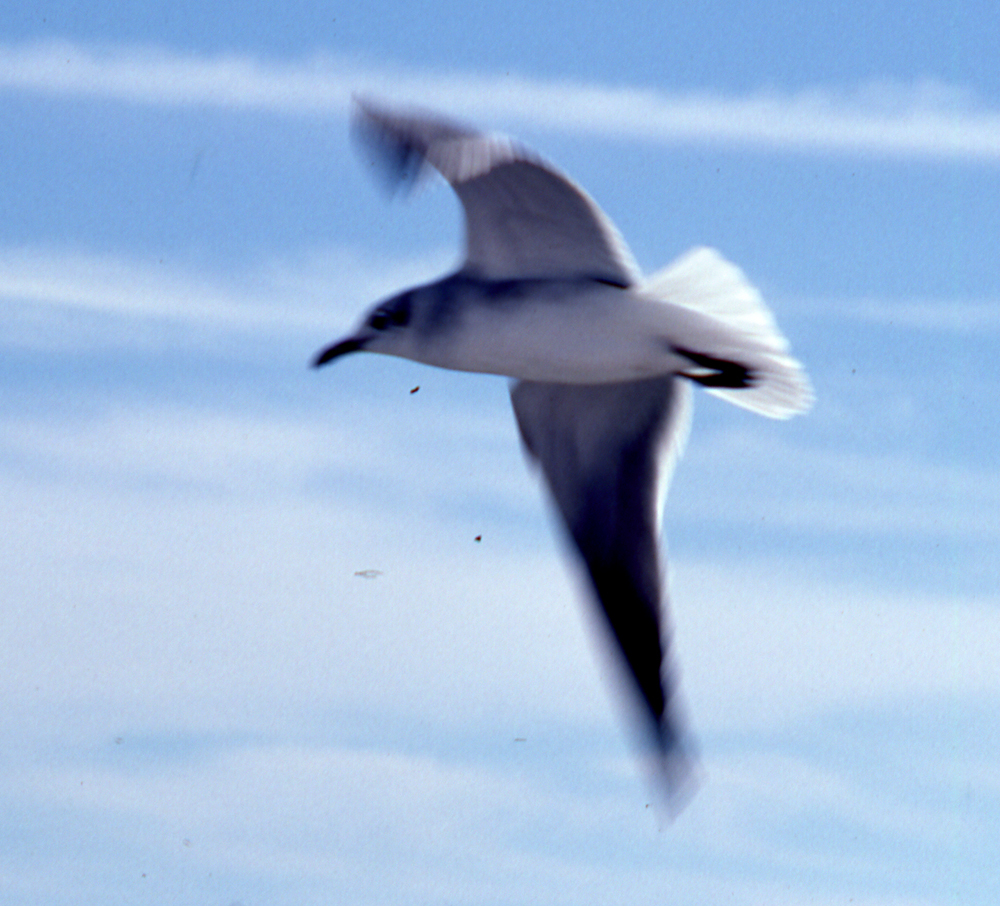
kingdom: Animalia
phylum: Chordata
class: Aves
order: Charadriiformes
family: Laridae
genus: Leucophaeus
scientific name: Leucophaeus atricilla
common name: Laughing gull
